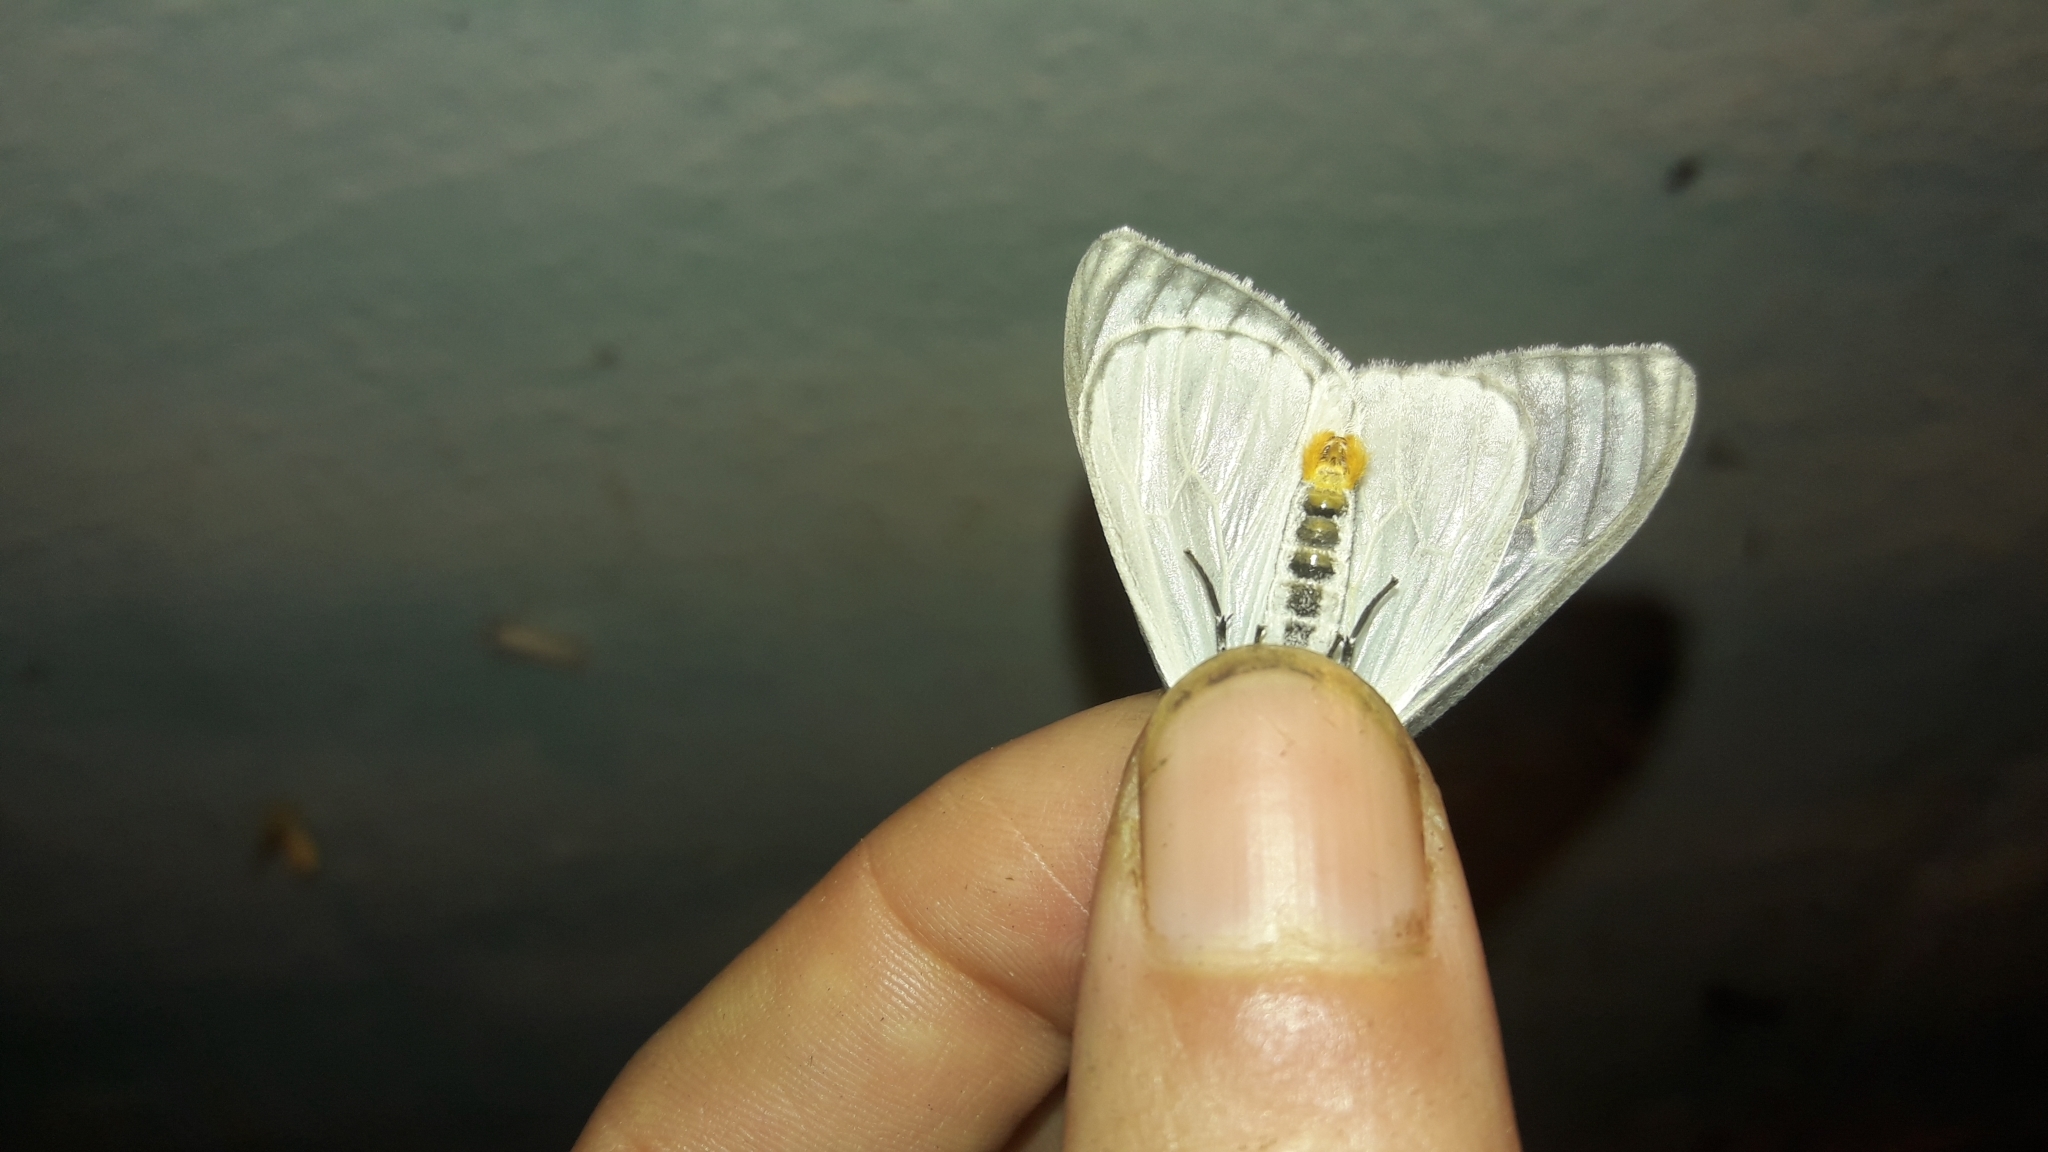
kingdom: Animalia
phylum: Arthropoda
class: Insecta
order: Lepidoptera
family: Erebidae
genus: Xenosoma
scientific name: Xenosoma nigromarginatum
